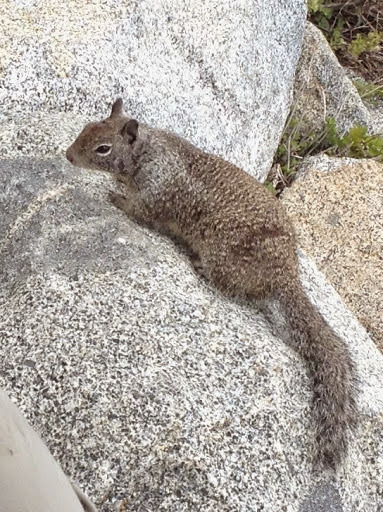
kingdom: Animalia
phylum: Chordata
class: Mammalia
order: Rodentia
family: Sciuridae
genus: Otospermophilus
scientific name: Otospermophilus beecheyi
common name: California ground squirrel
